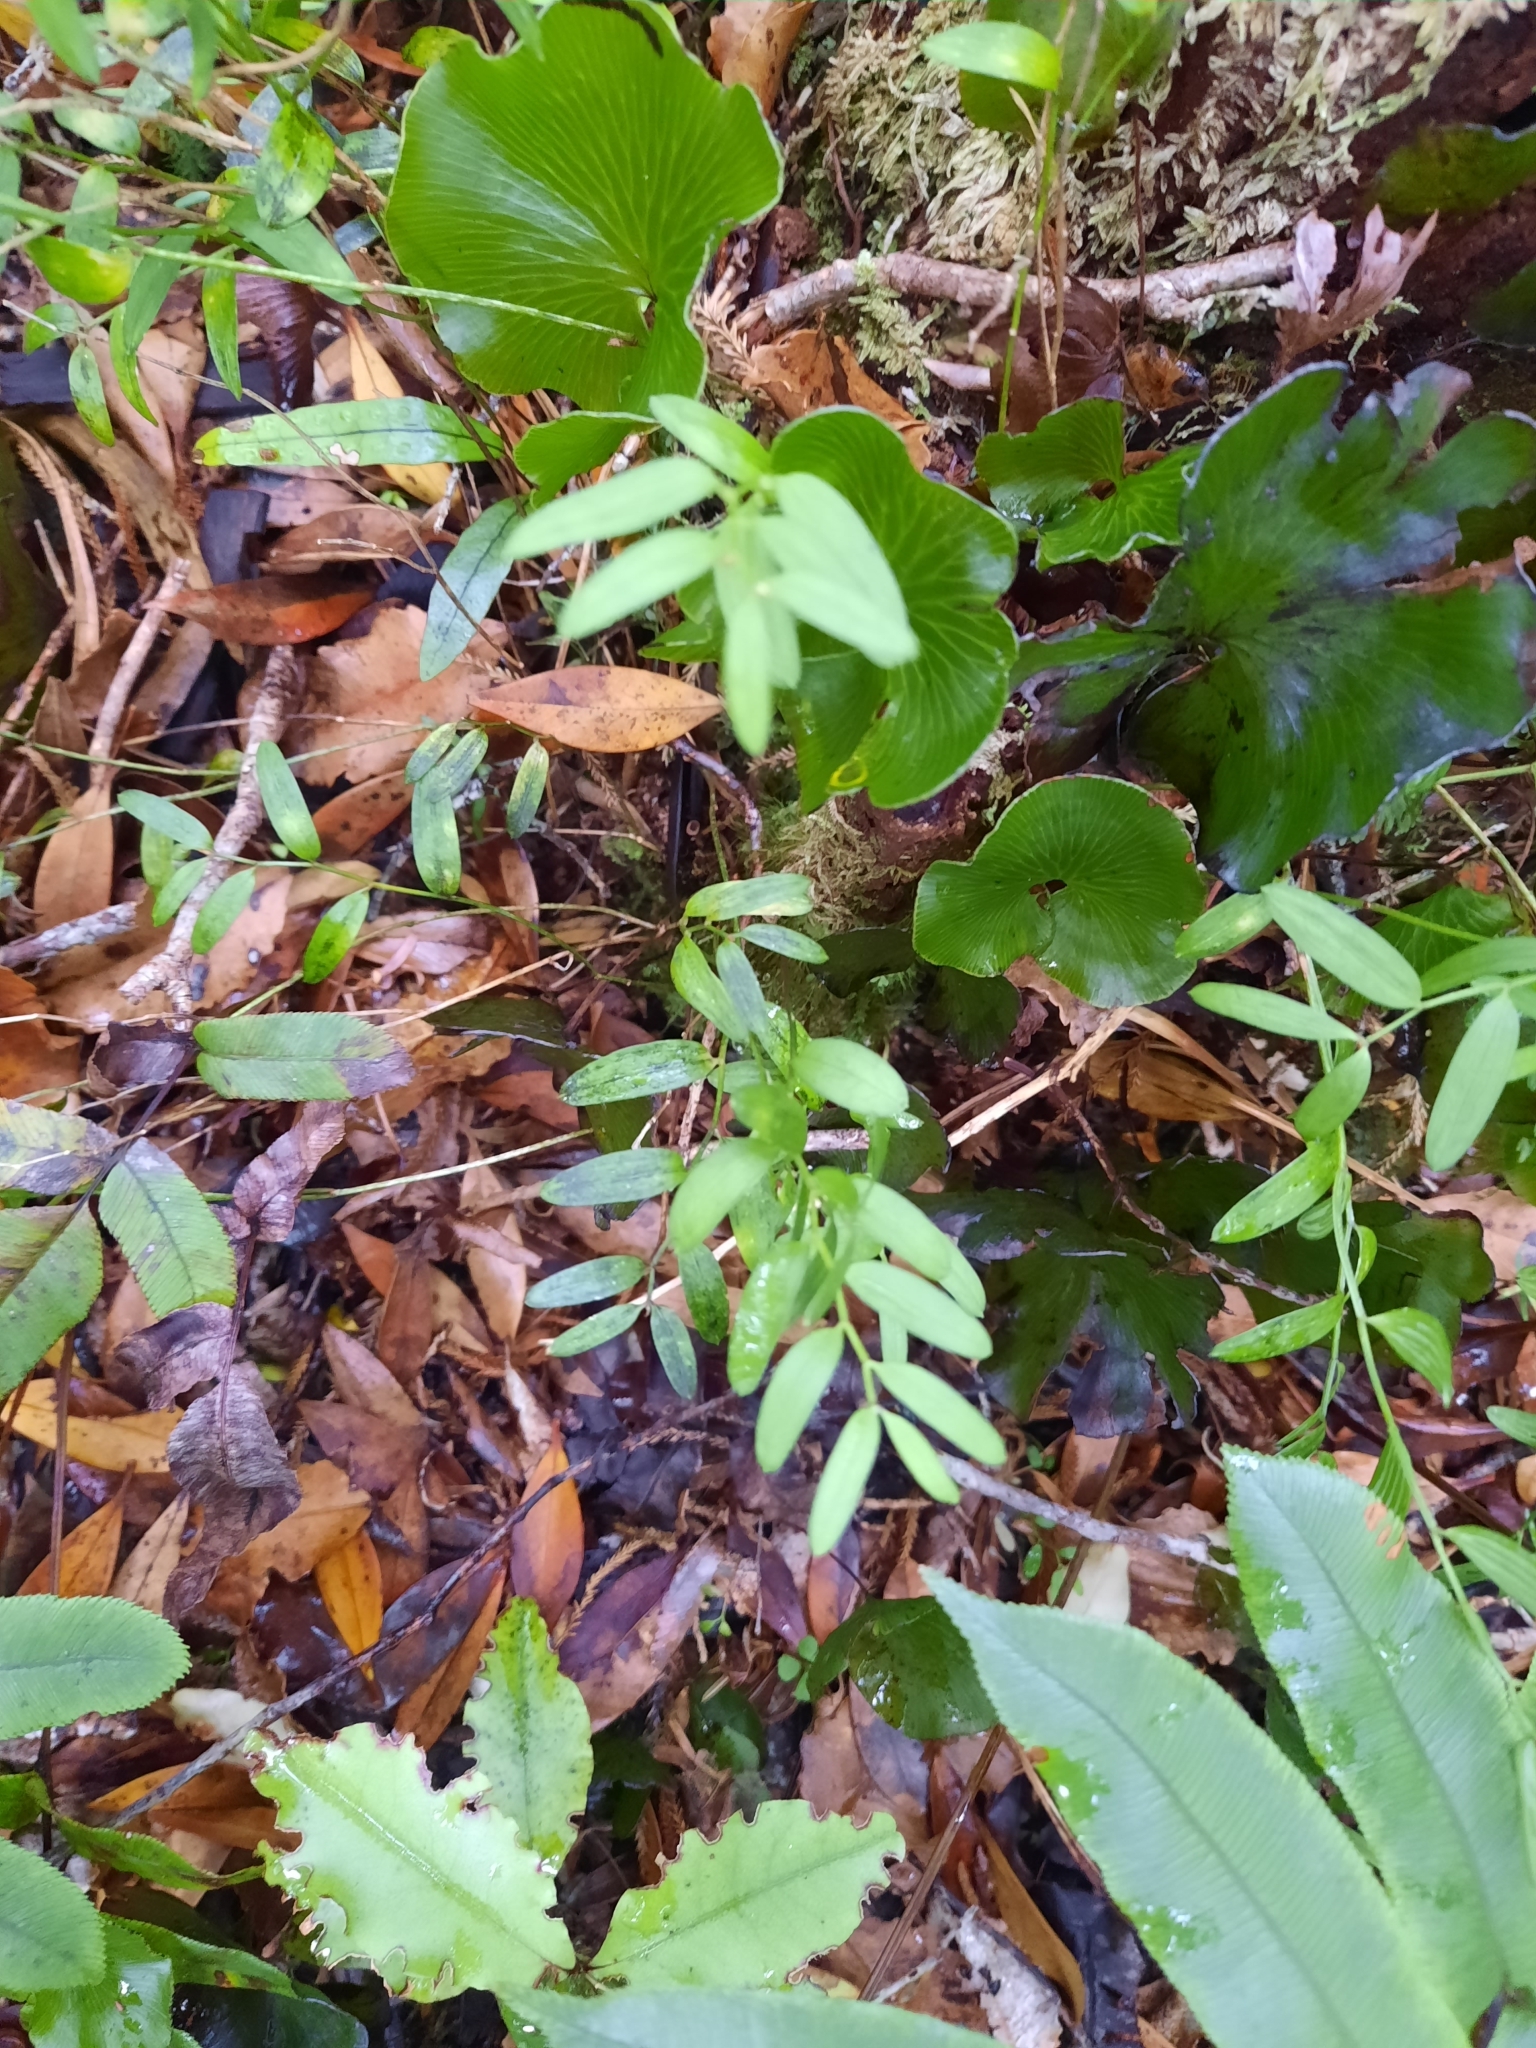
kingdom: Plantae
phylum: Tracheophyta
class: Liliopsida
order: Liliales
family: Alstroemeriaceae
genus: Luzuriaga
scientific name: Luzuriaga parviflora
